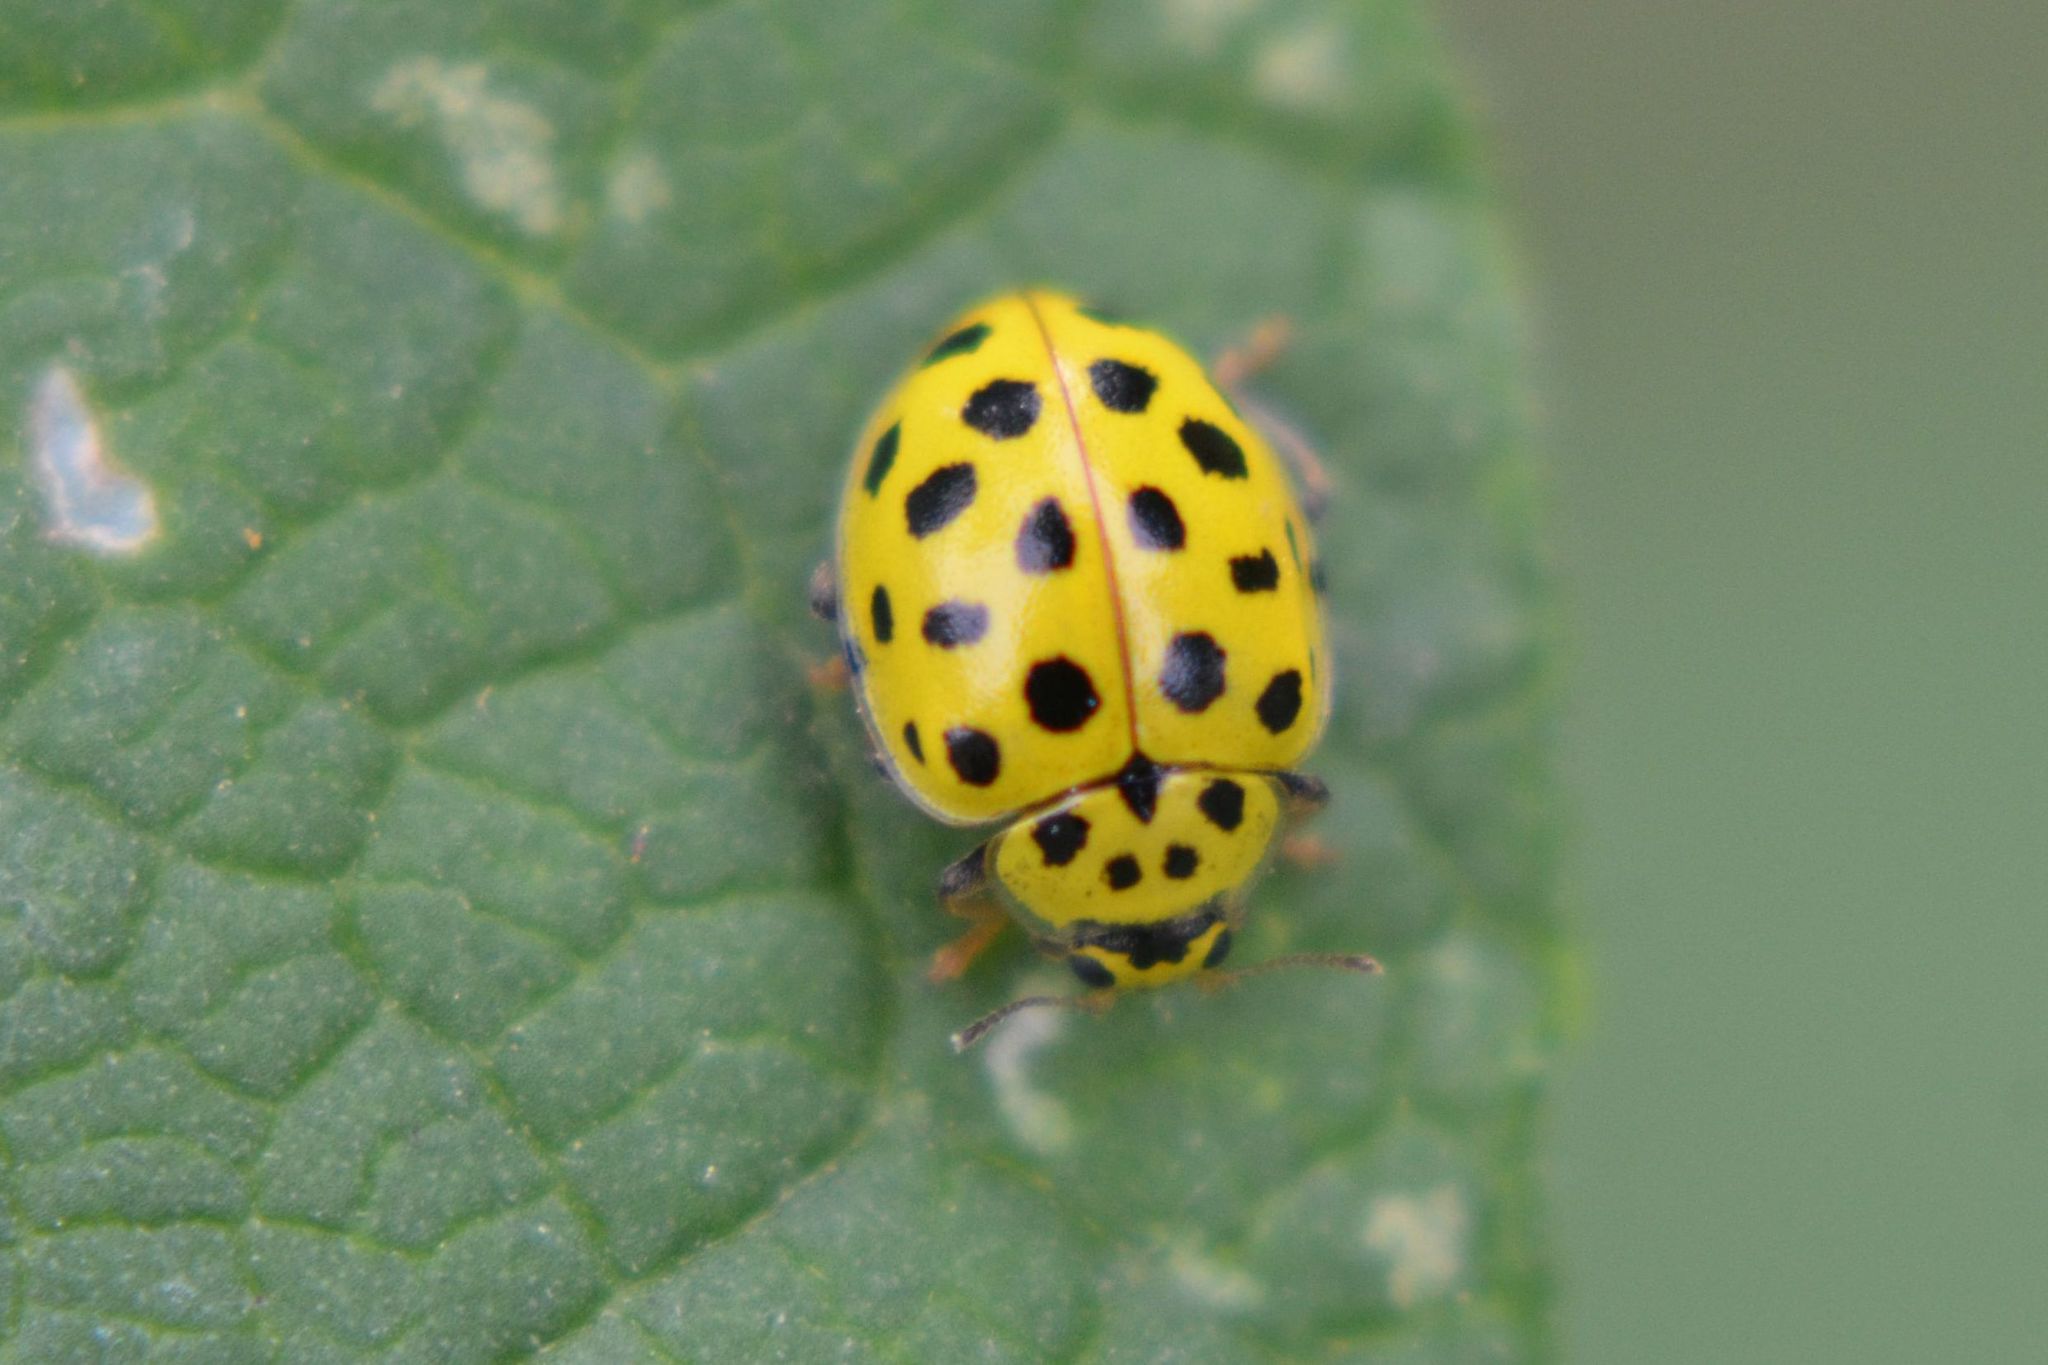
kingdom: Animalia
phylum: Arthropoda
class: Insecta
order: Coleoptera
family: Coccinellidae
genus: Psyllobora
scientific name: Psyllobora vigintiduopunctata
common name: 22-spot ladybird
